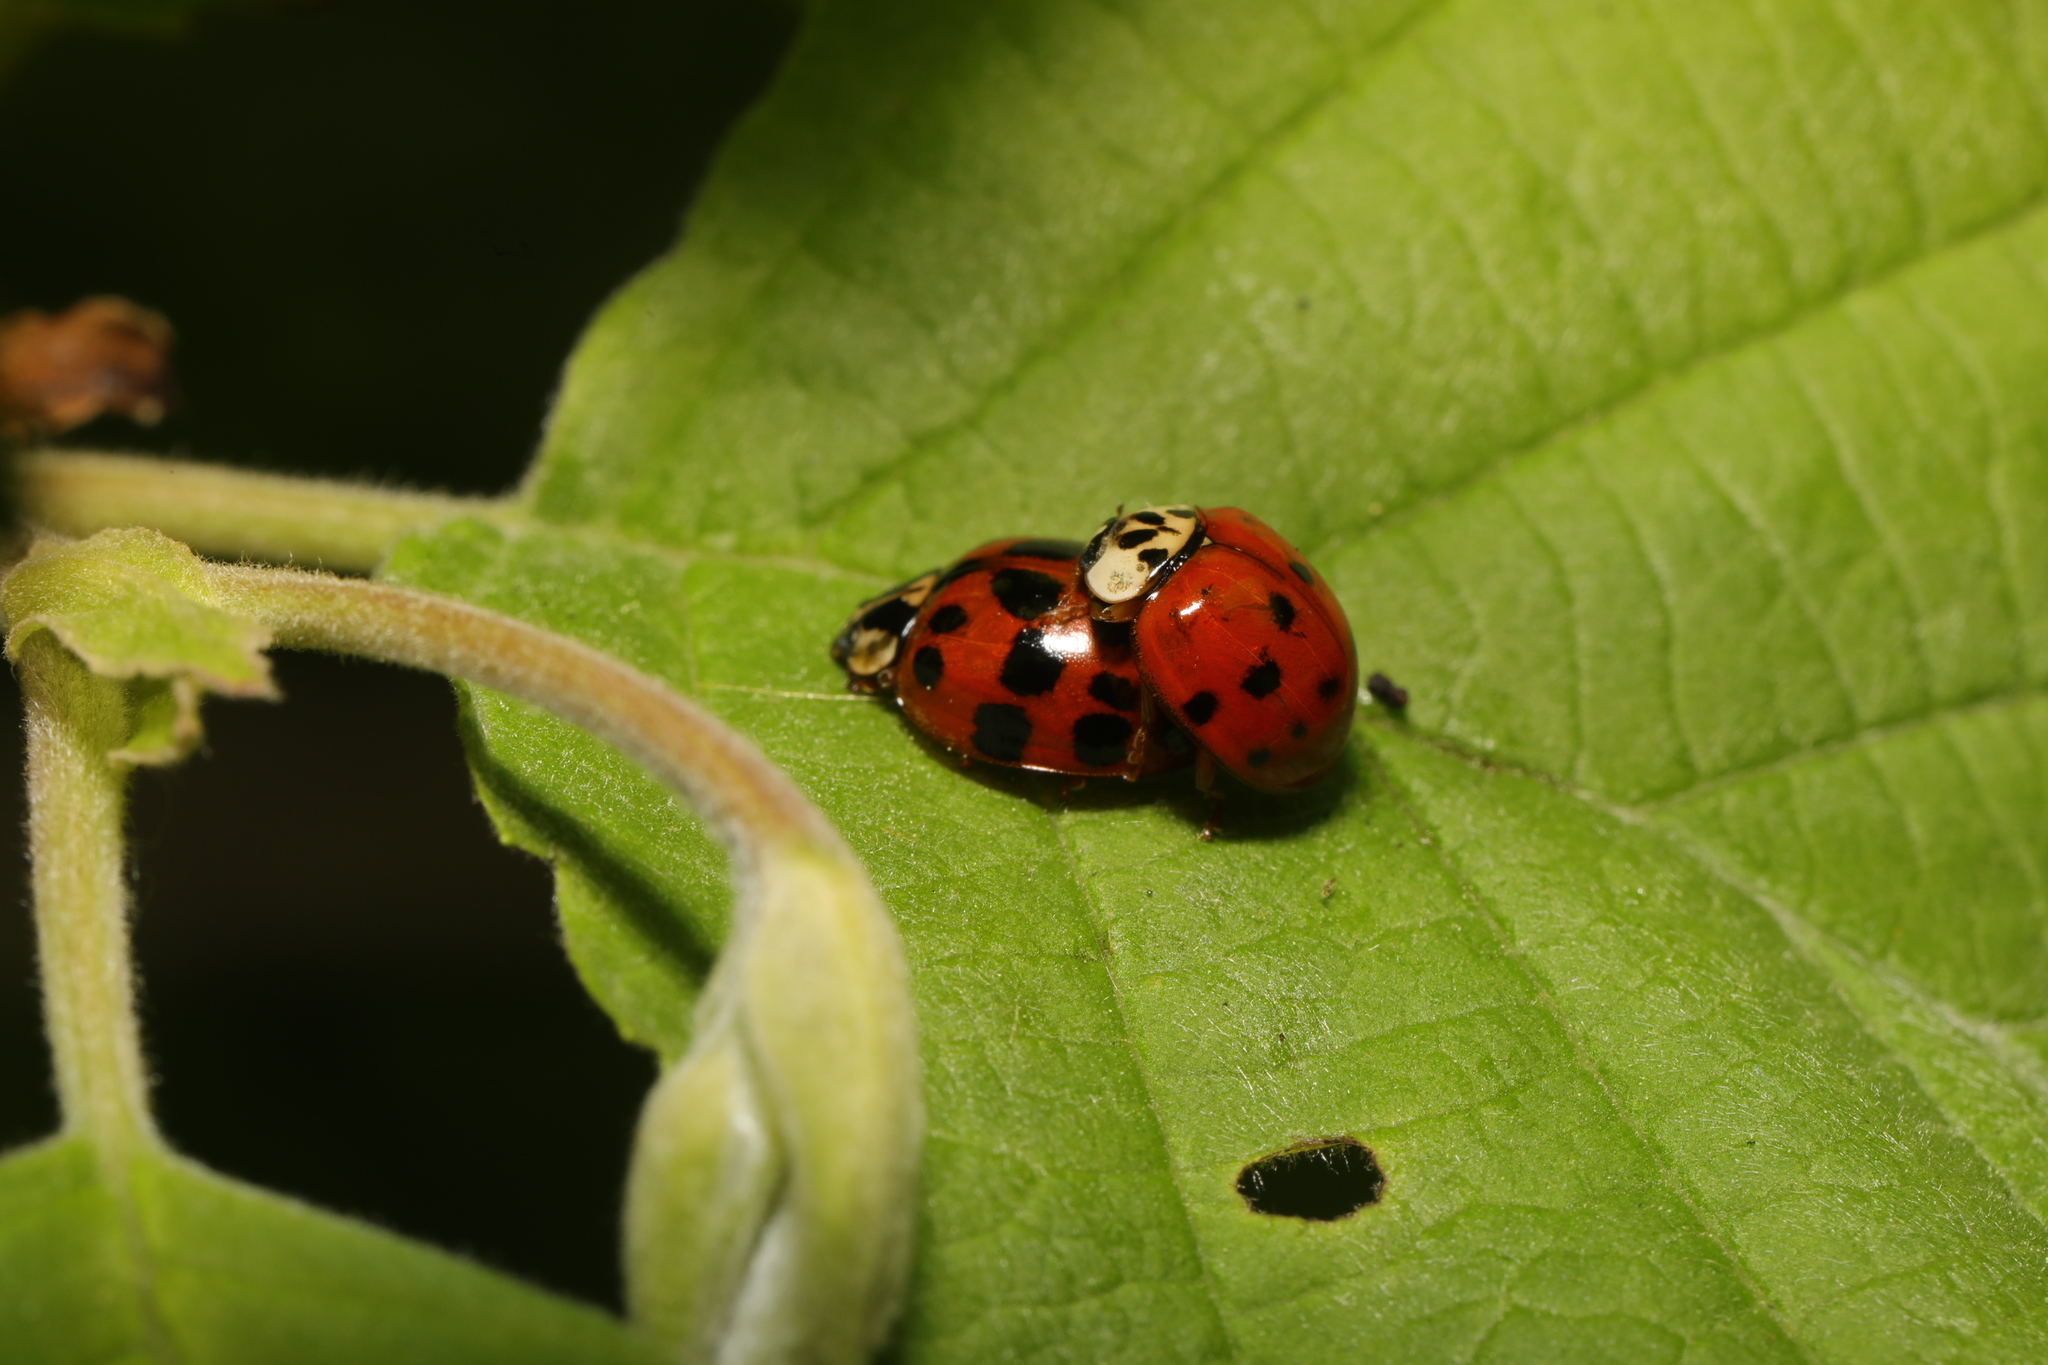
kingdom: Animalia
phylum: Arthropoda
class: Insecta
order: Coleoptera
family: Coccinellidae
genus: Harmonia
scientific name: Harmonia axyridis
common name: Harlequin ladybird
